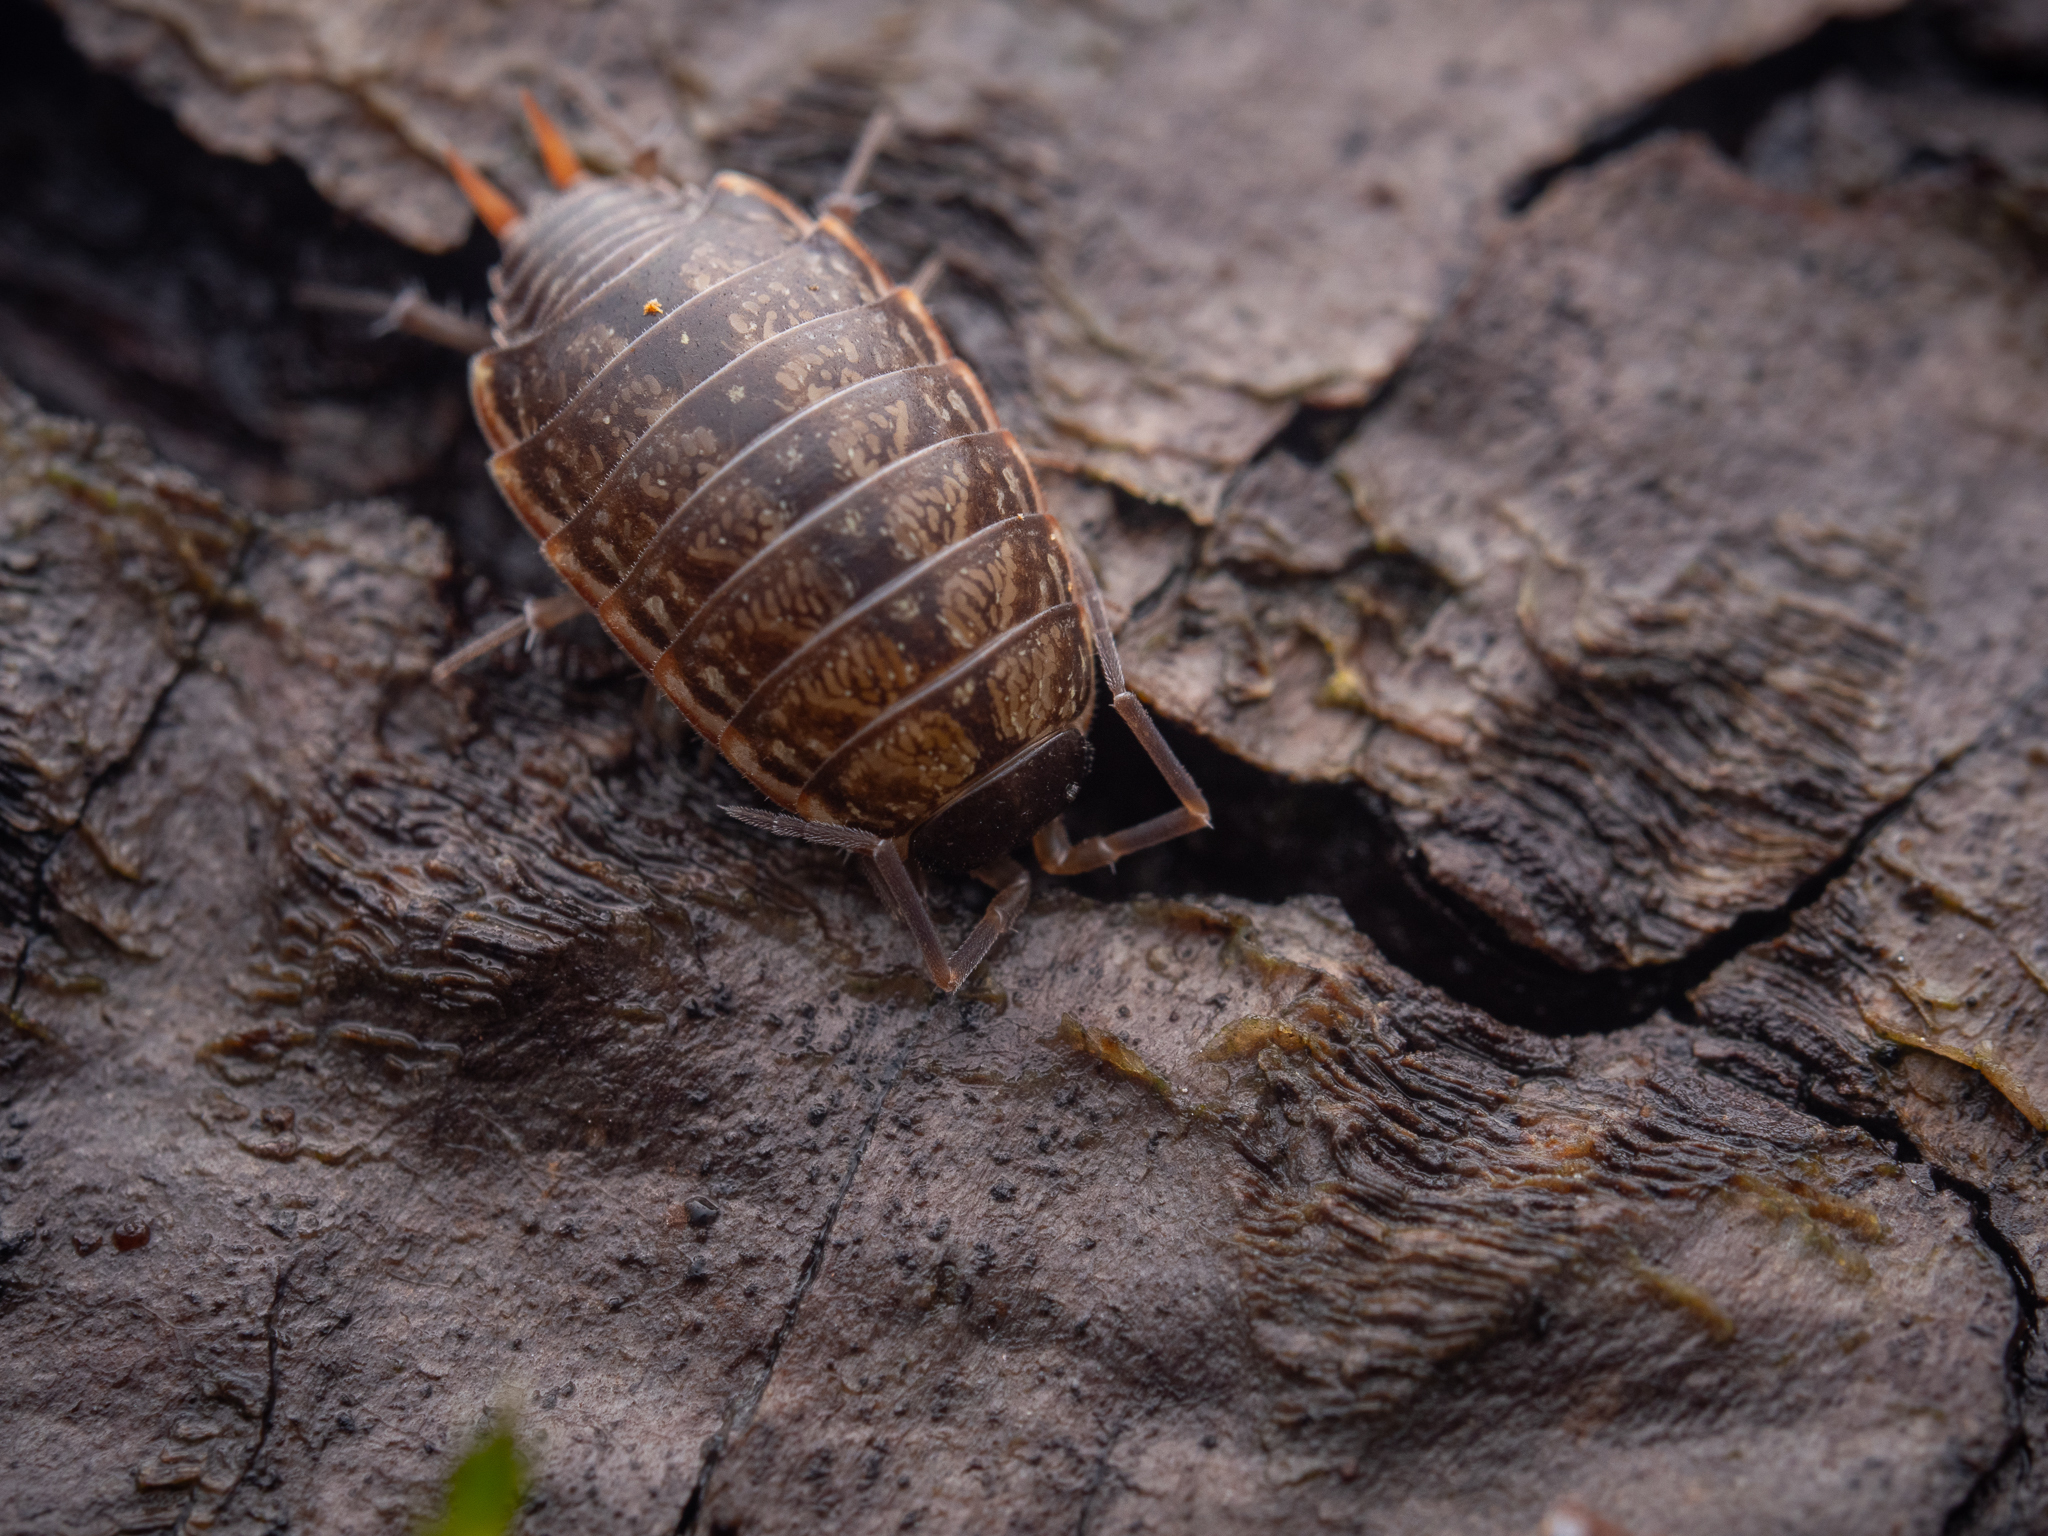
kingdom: Animalia
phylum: Arthropoda
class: Malacostraca
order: Isopoda
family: Philosciidae
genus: Philoscia
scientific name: Philoscia muscorum
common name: Common striped woodlouse
